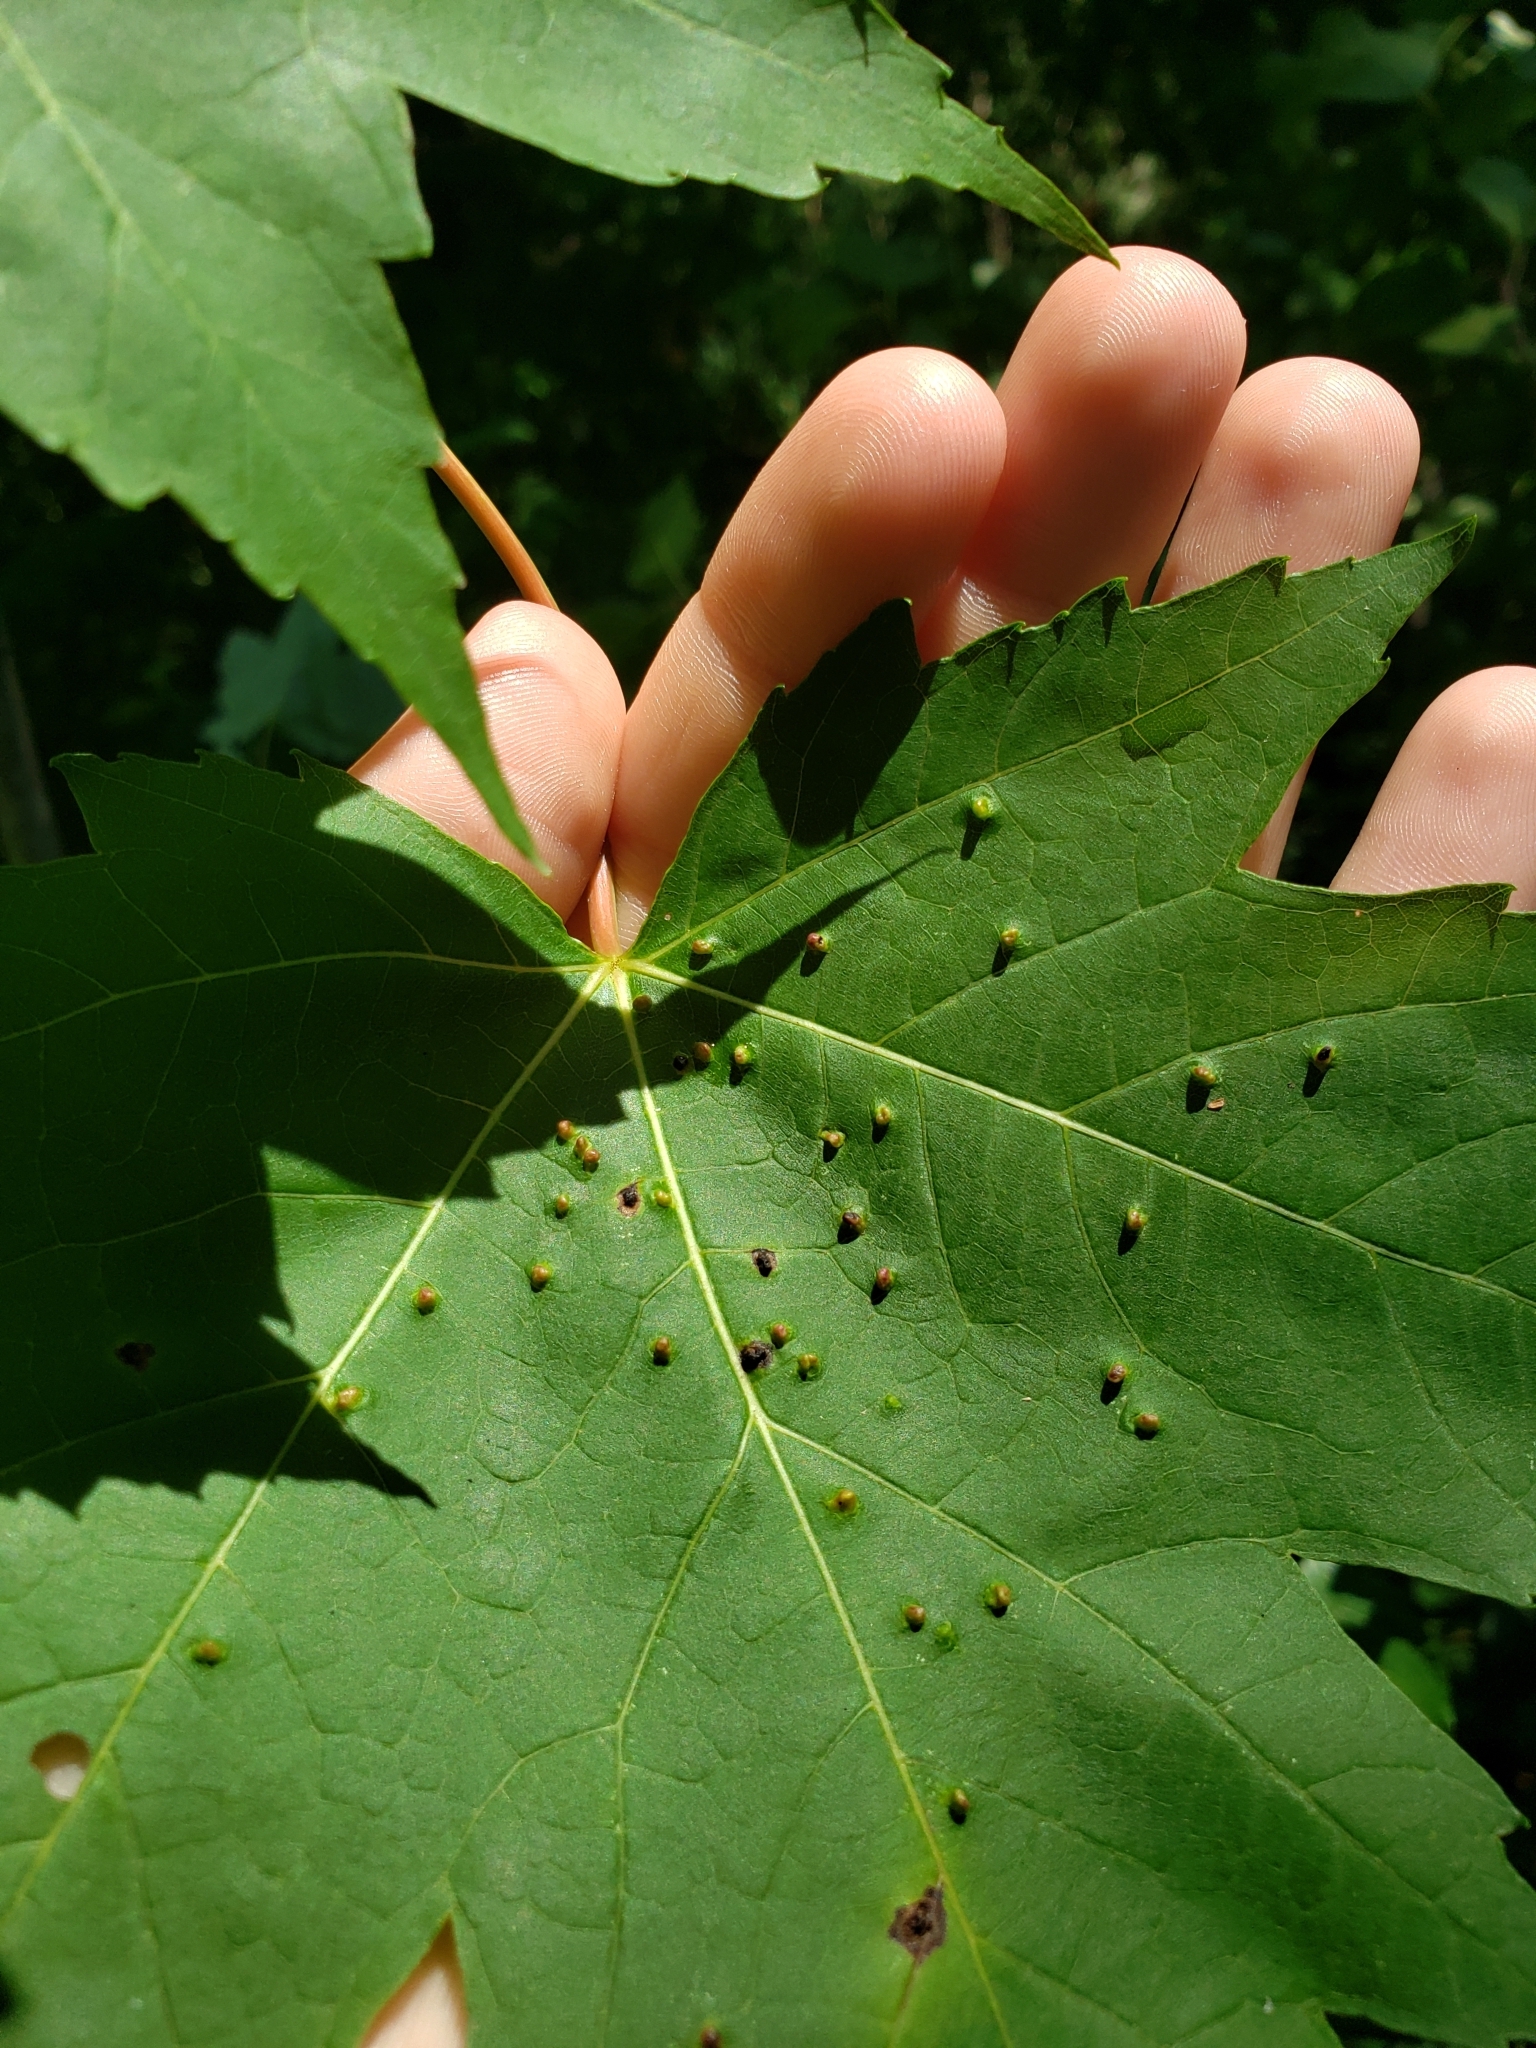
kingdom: Animalia
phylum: Arthropoda
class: Arachnida
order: Trombidiformes
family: Eriophyidae
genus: Vasates
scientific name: Vasates quadripedes
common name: Maple bladder gall mite
